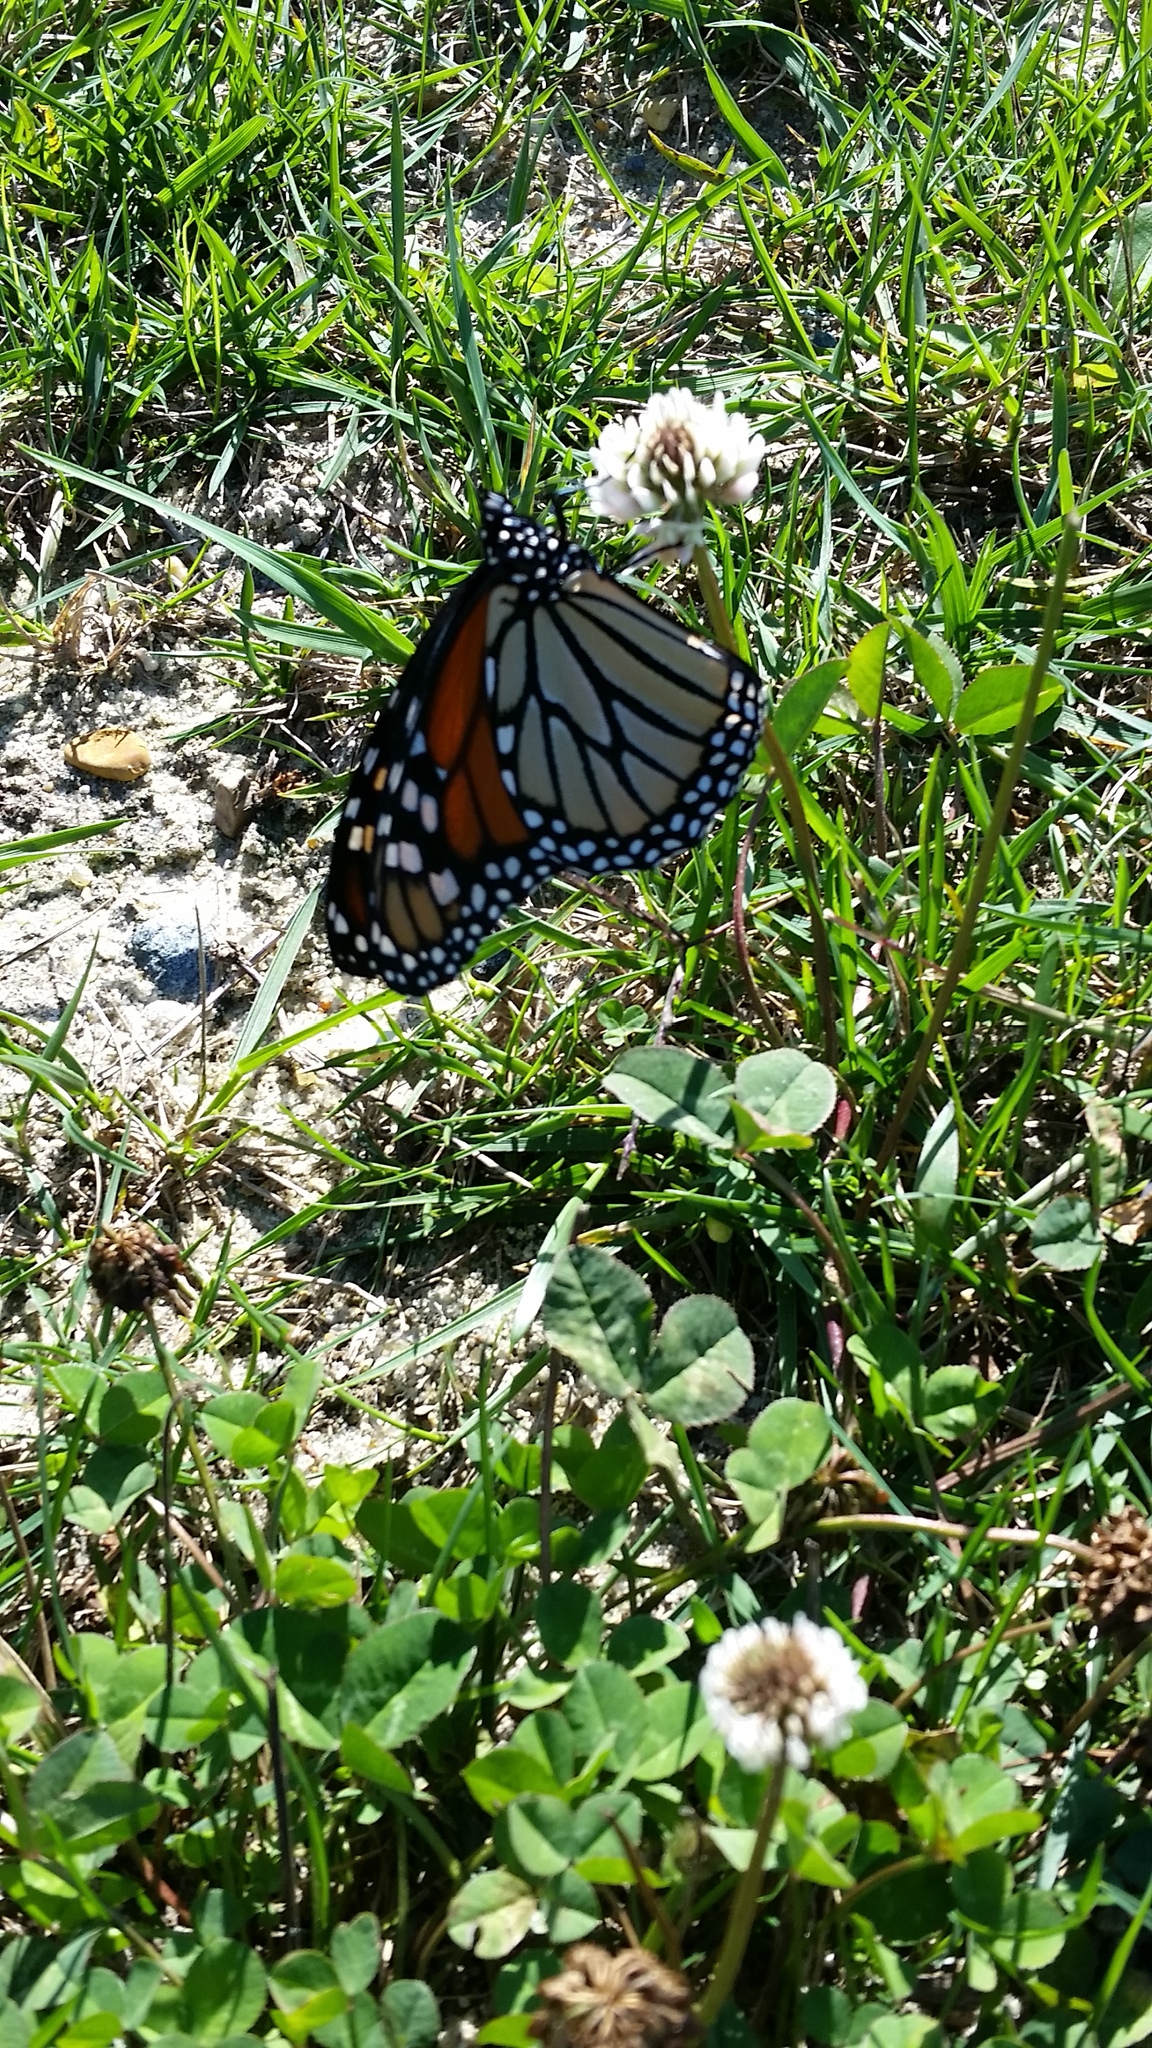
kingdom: Animalia
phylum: Arthropoda
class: Insecta
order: Lepidoptera
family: Nymphalidae
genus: Danaus
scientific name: Danaus plexippus
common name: Monarch
